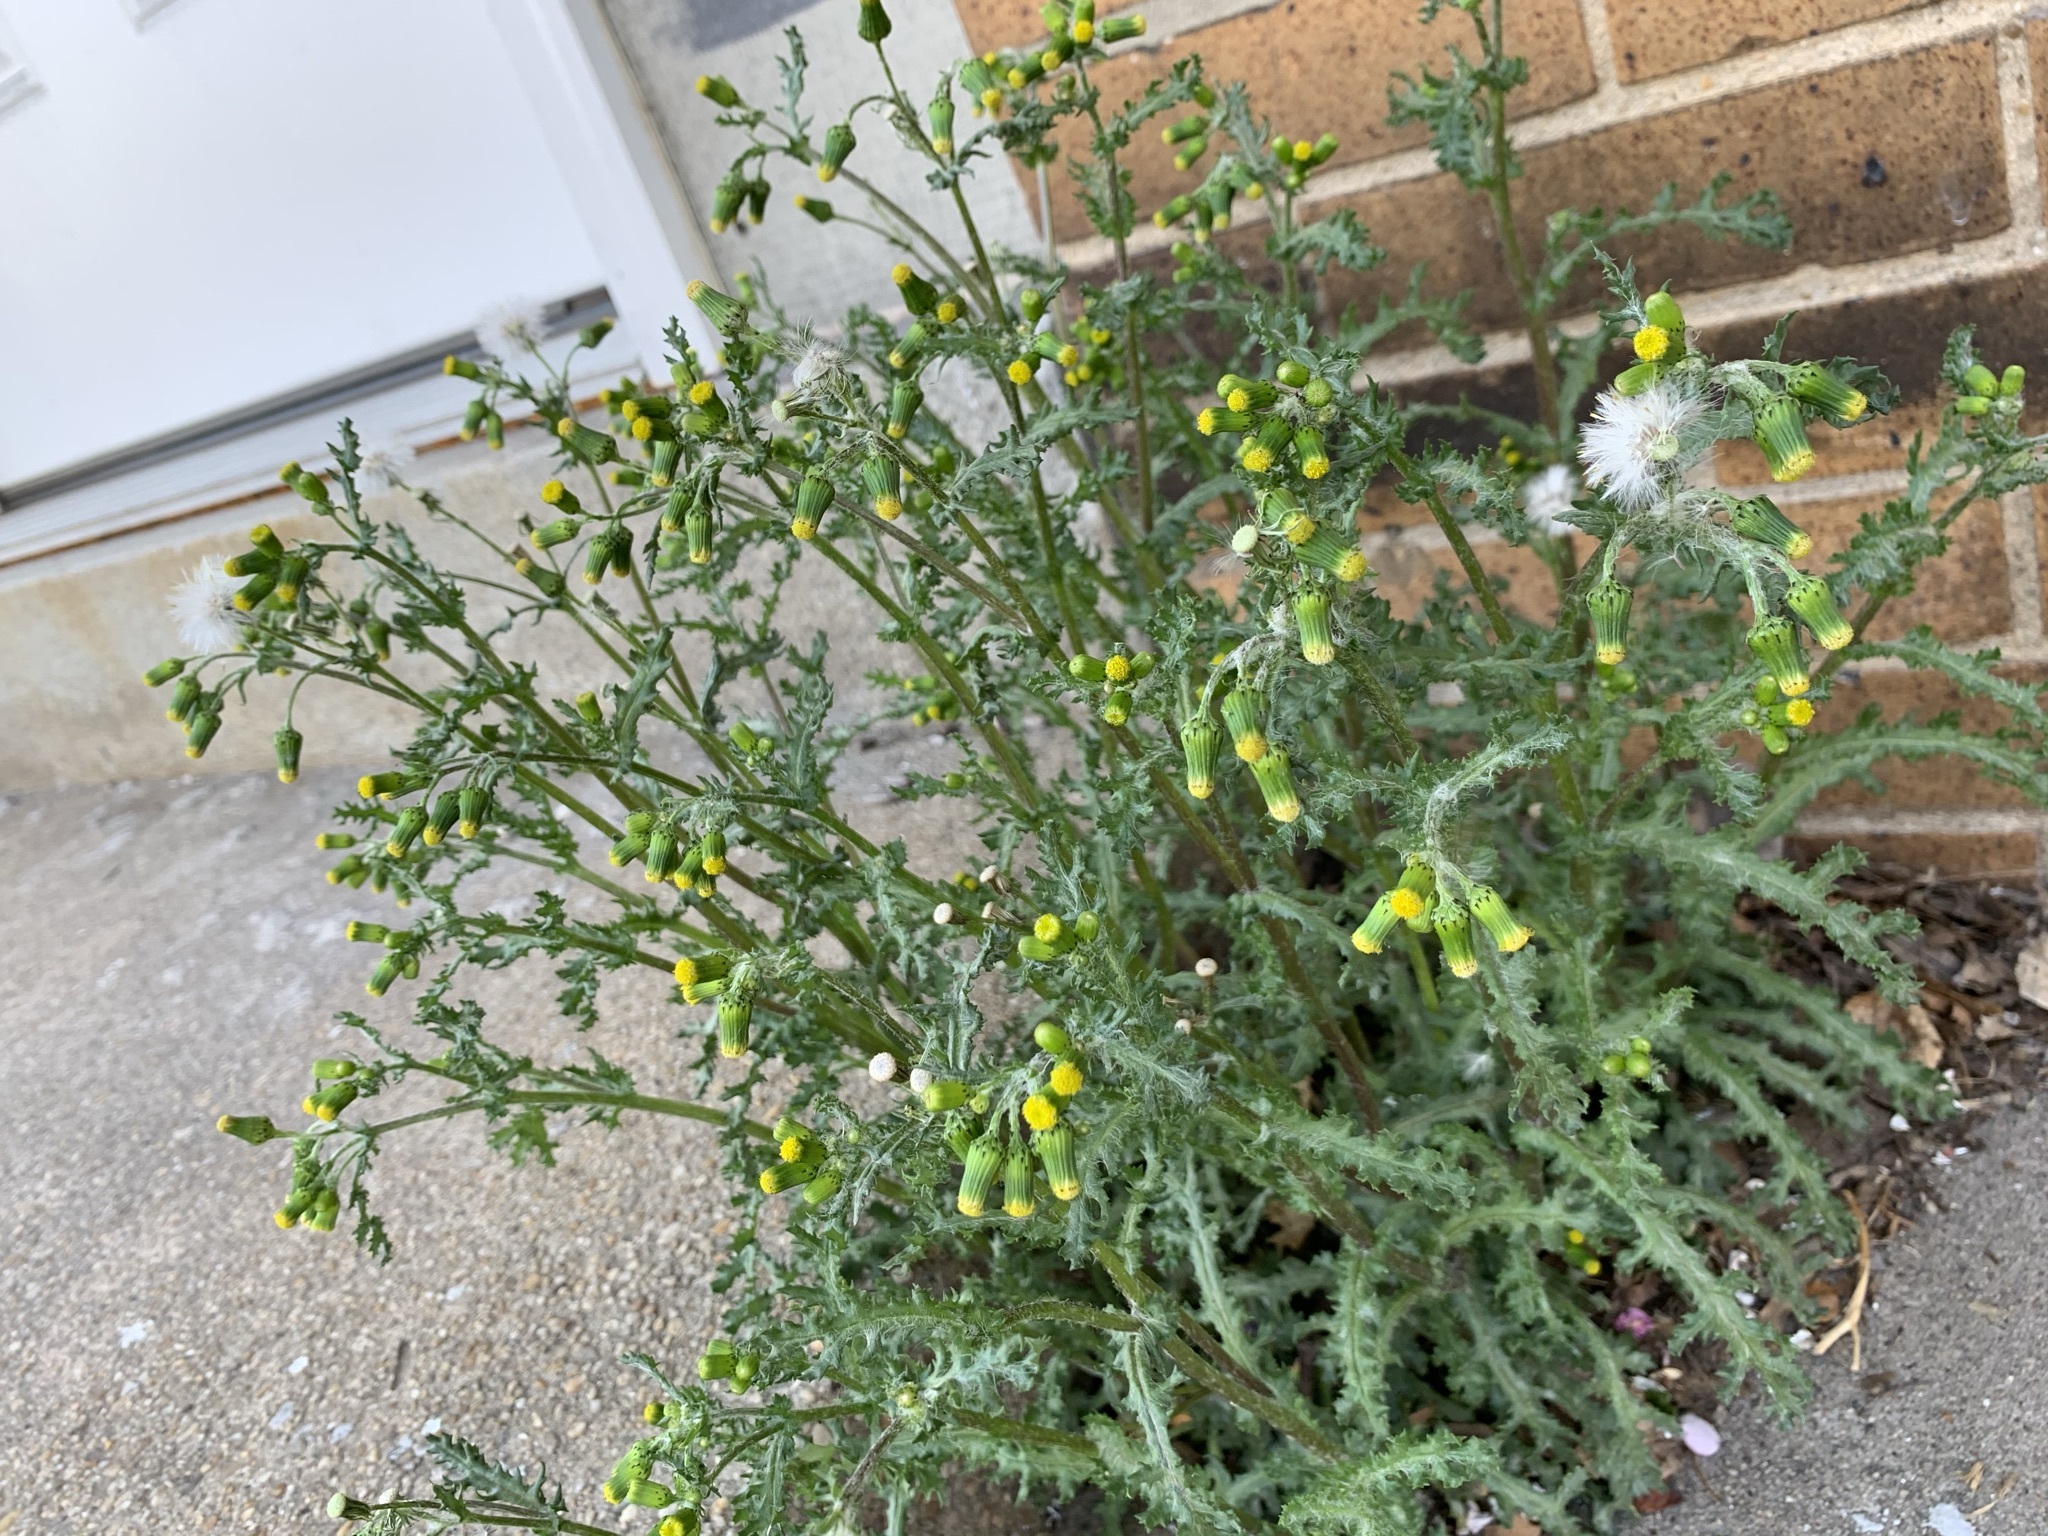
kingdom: Plantae
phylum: Tracheophyta
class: Magnoliopsida
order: Asterales
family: Asteraceae
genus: Senecio
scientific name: Senecio vulgaris
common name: Old-man-in-the-spring
